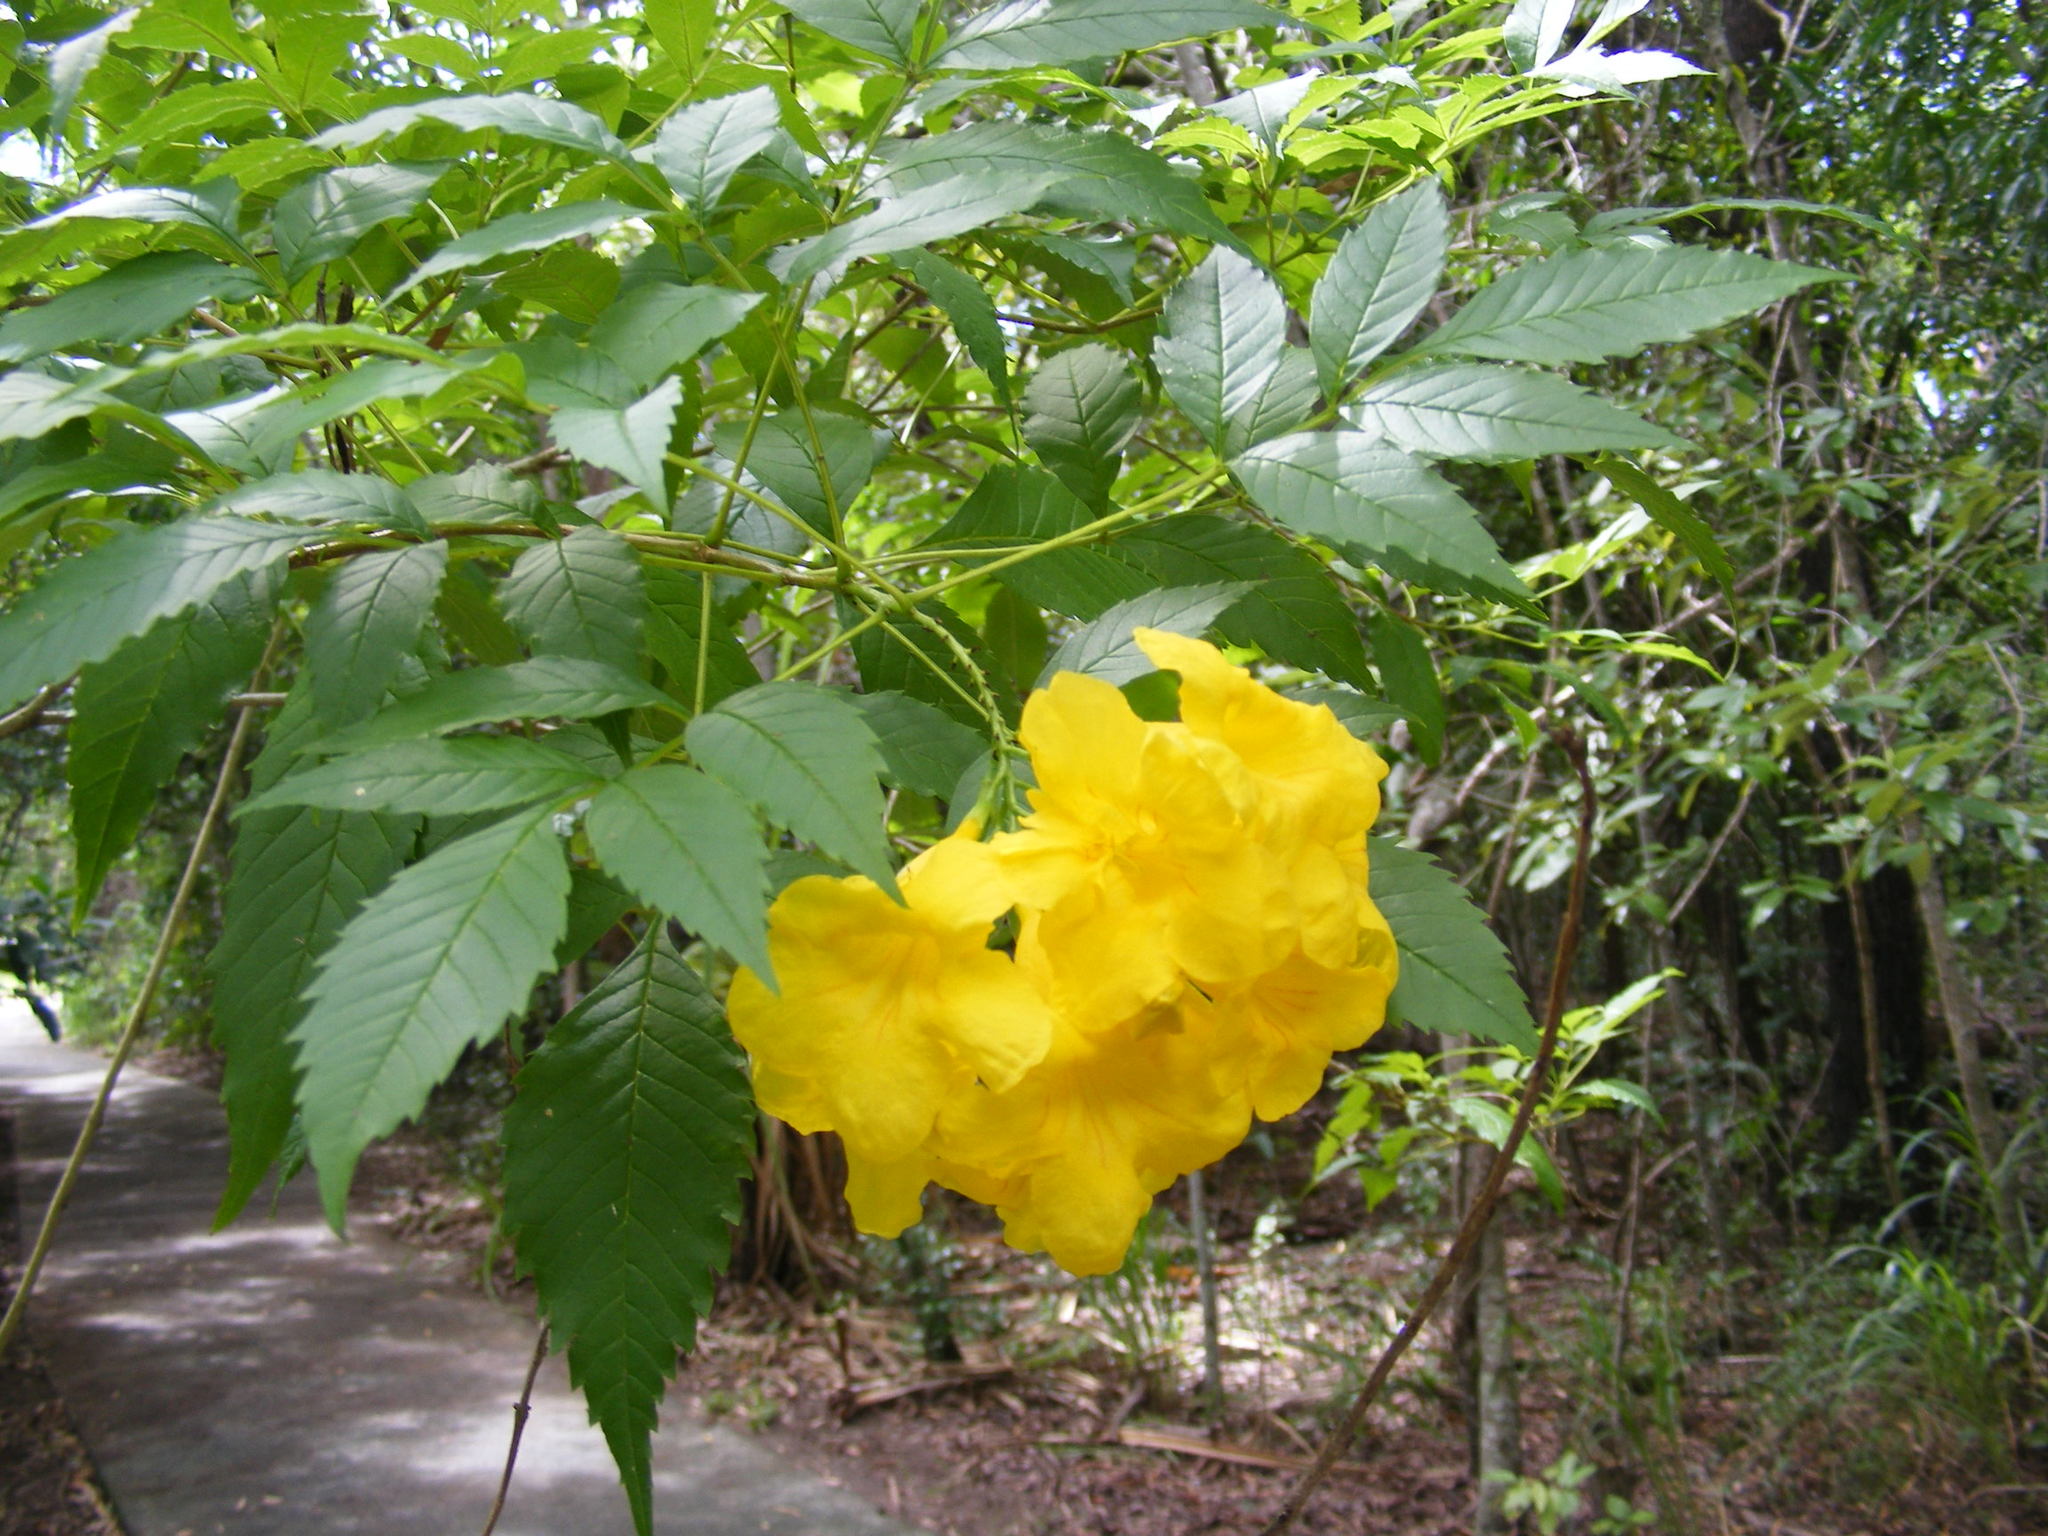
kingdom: Plantae
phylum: Tracheophyta
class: Magnoliopsida
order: Lamiales
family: Bignoniaceae
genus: Tecoma
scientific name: Tecoma stans
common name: Yellow trumpetbush
